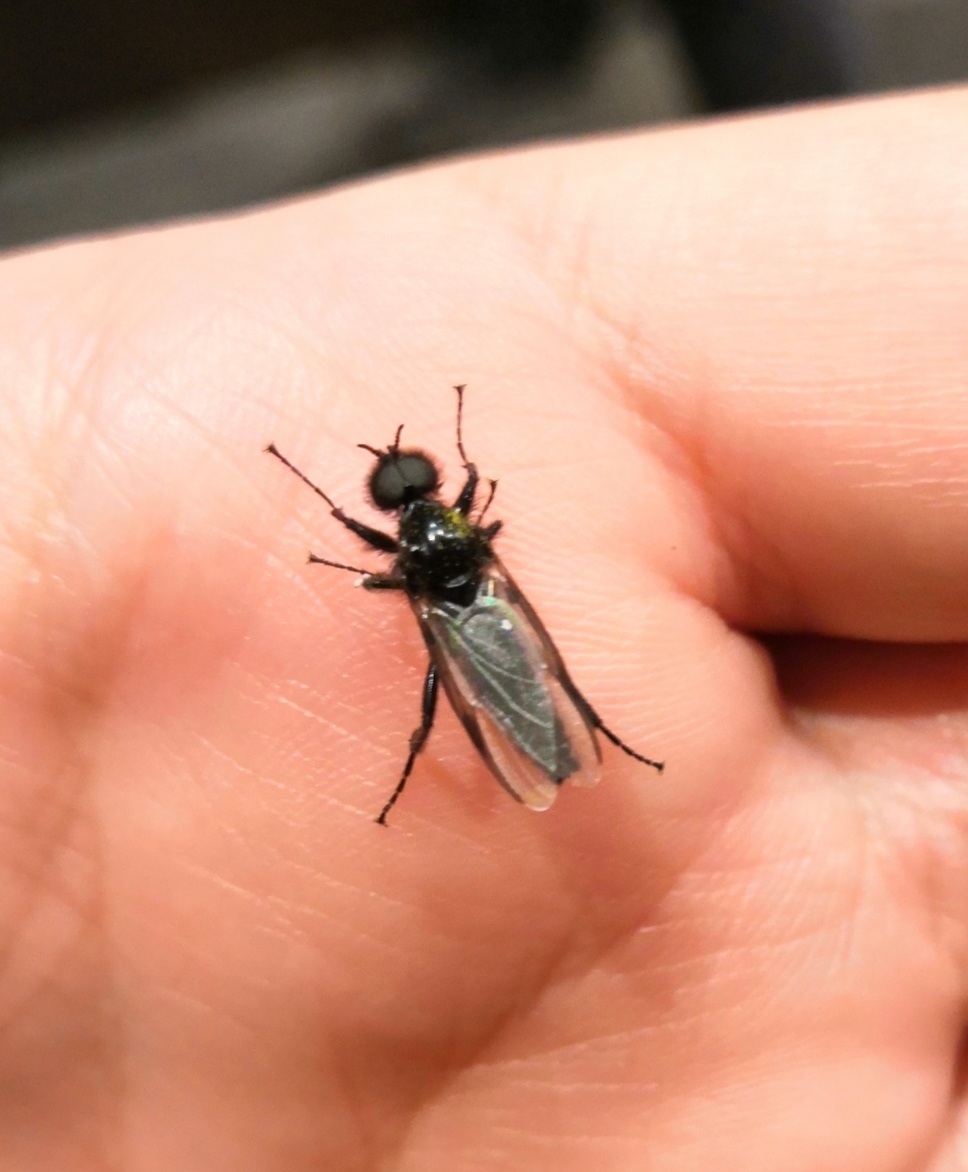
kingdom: Animalia
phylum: Arthropoda
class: Insecta
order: Diptera
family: Bibionidae
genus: Bibio
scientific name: Bibio marci
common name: St marks fly
